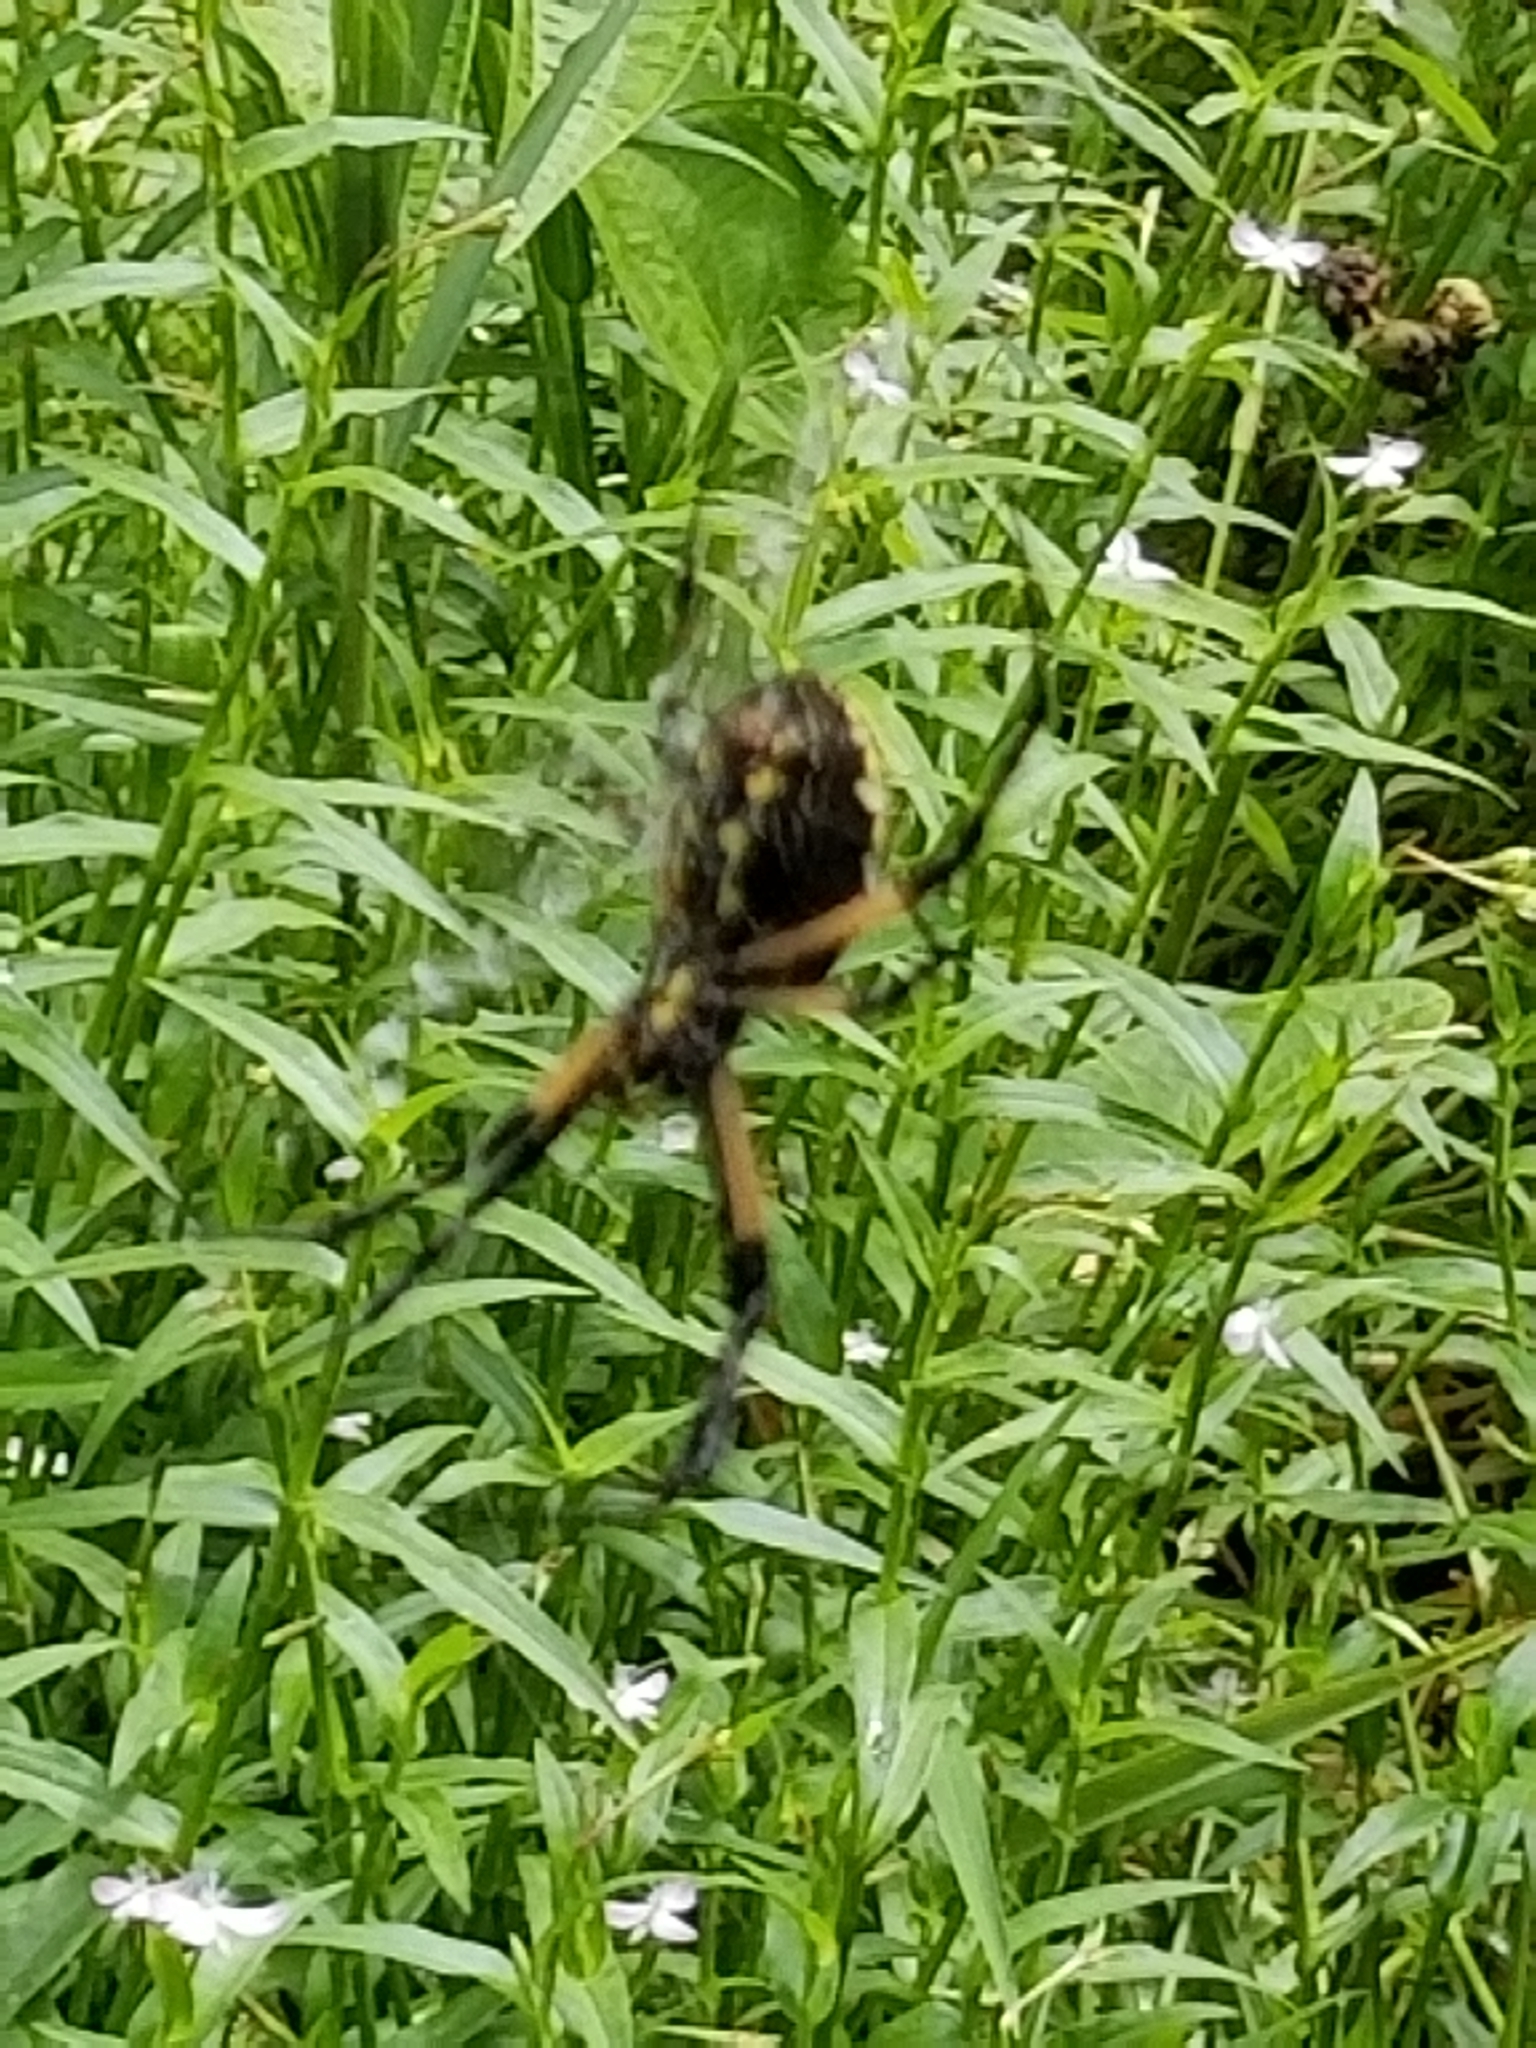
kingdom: Animalia
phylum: Arthropoda
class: Arachnida
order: Araneae
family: Araneidae
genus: Argiope
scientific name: Argiope aurantia
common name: Orb weavers
